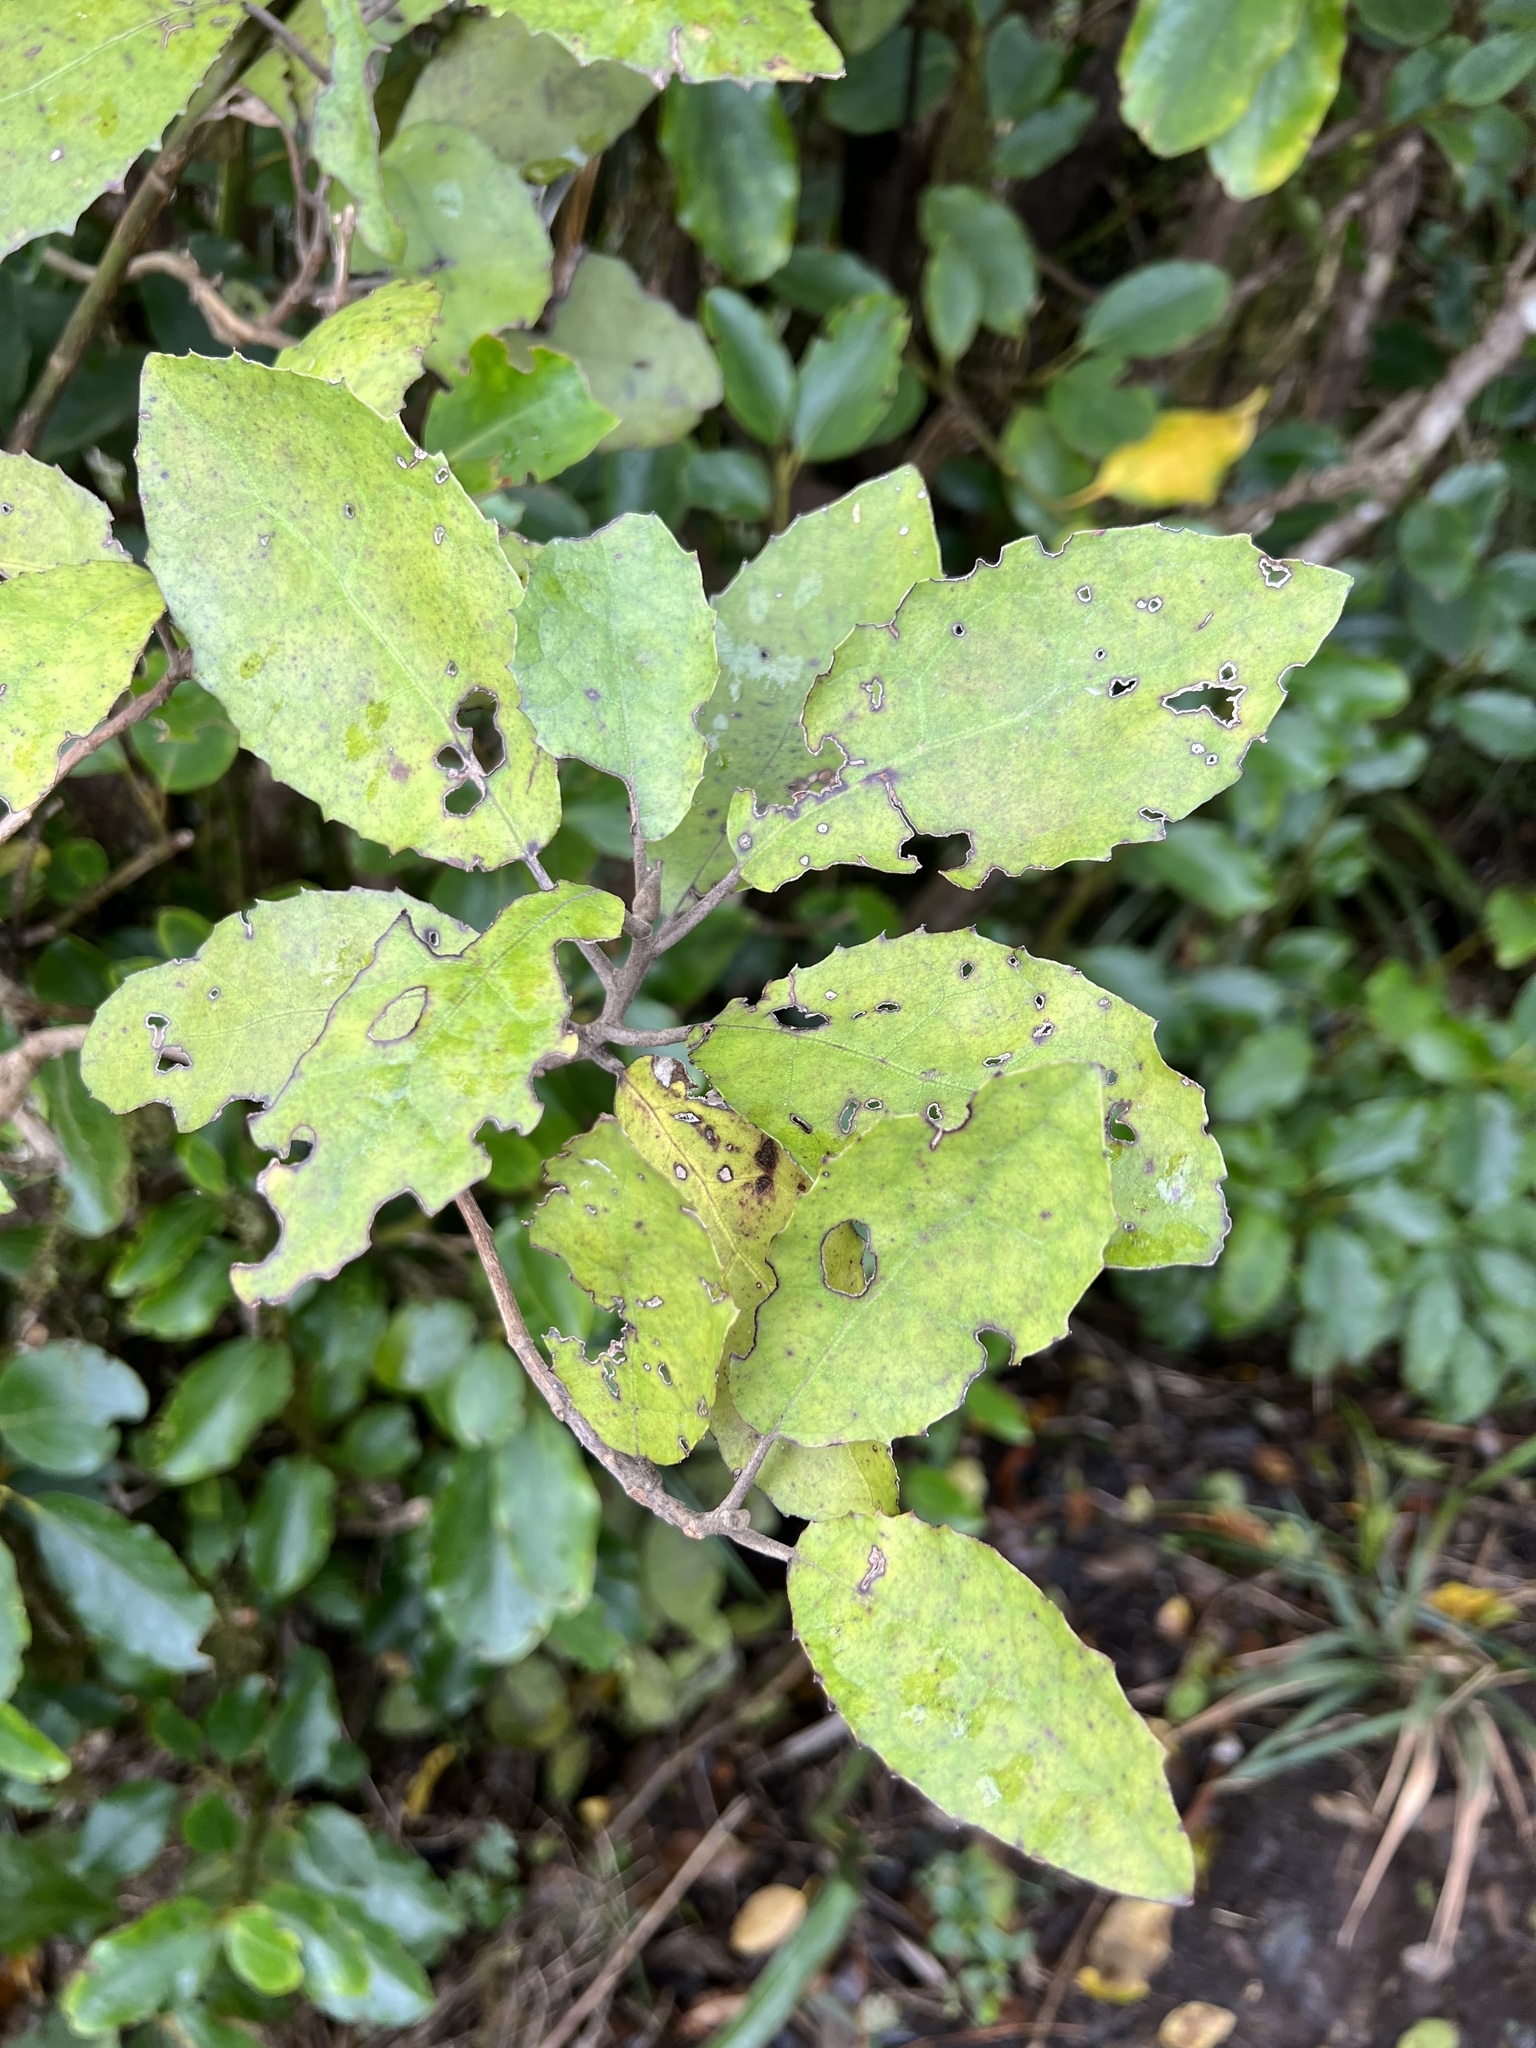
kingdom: Plantae
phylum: Tracheophyta
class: Magnoliopsida
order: Asterales
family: Asteraceae
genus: Olearia
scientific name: Olearia rani
